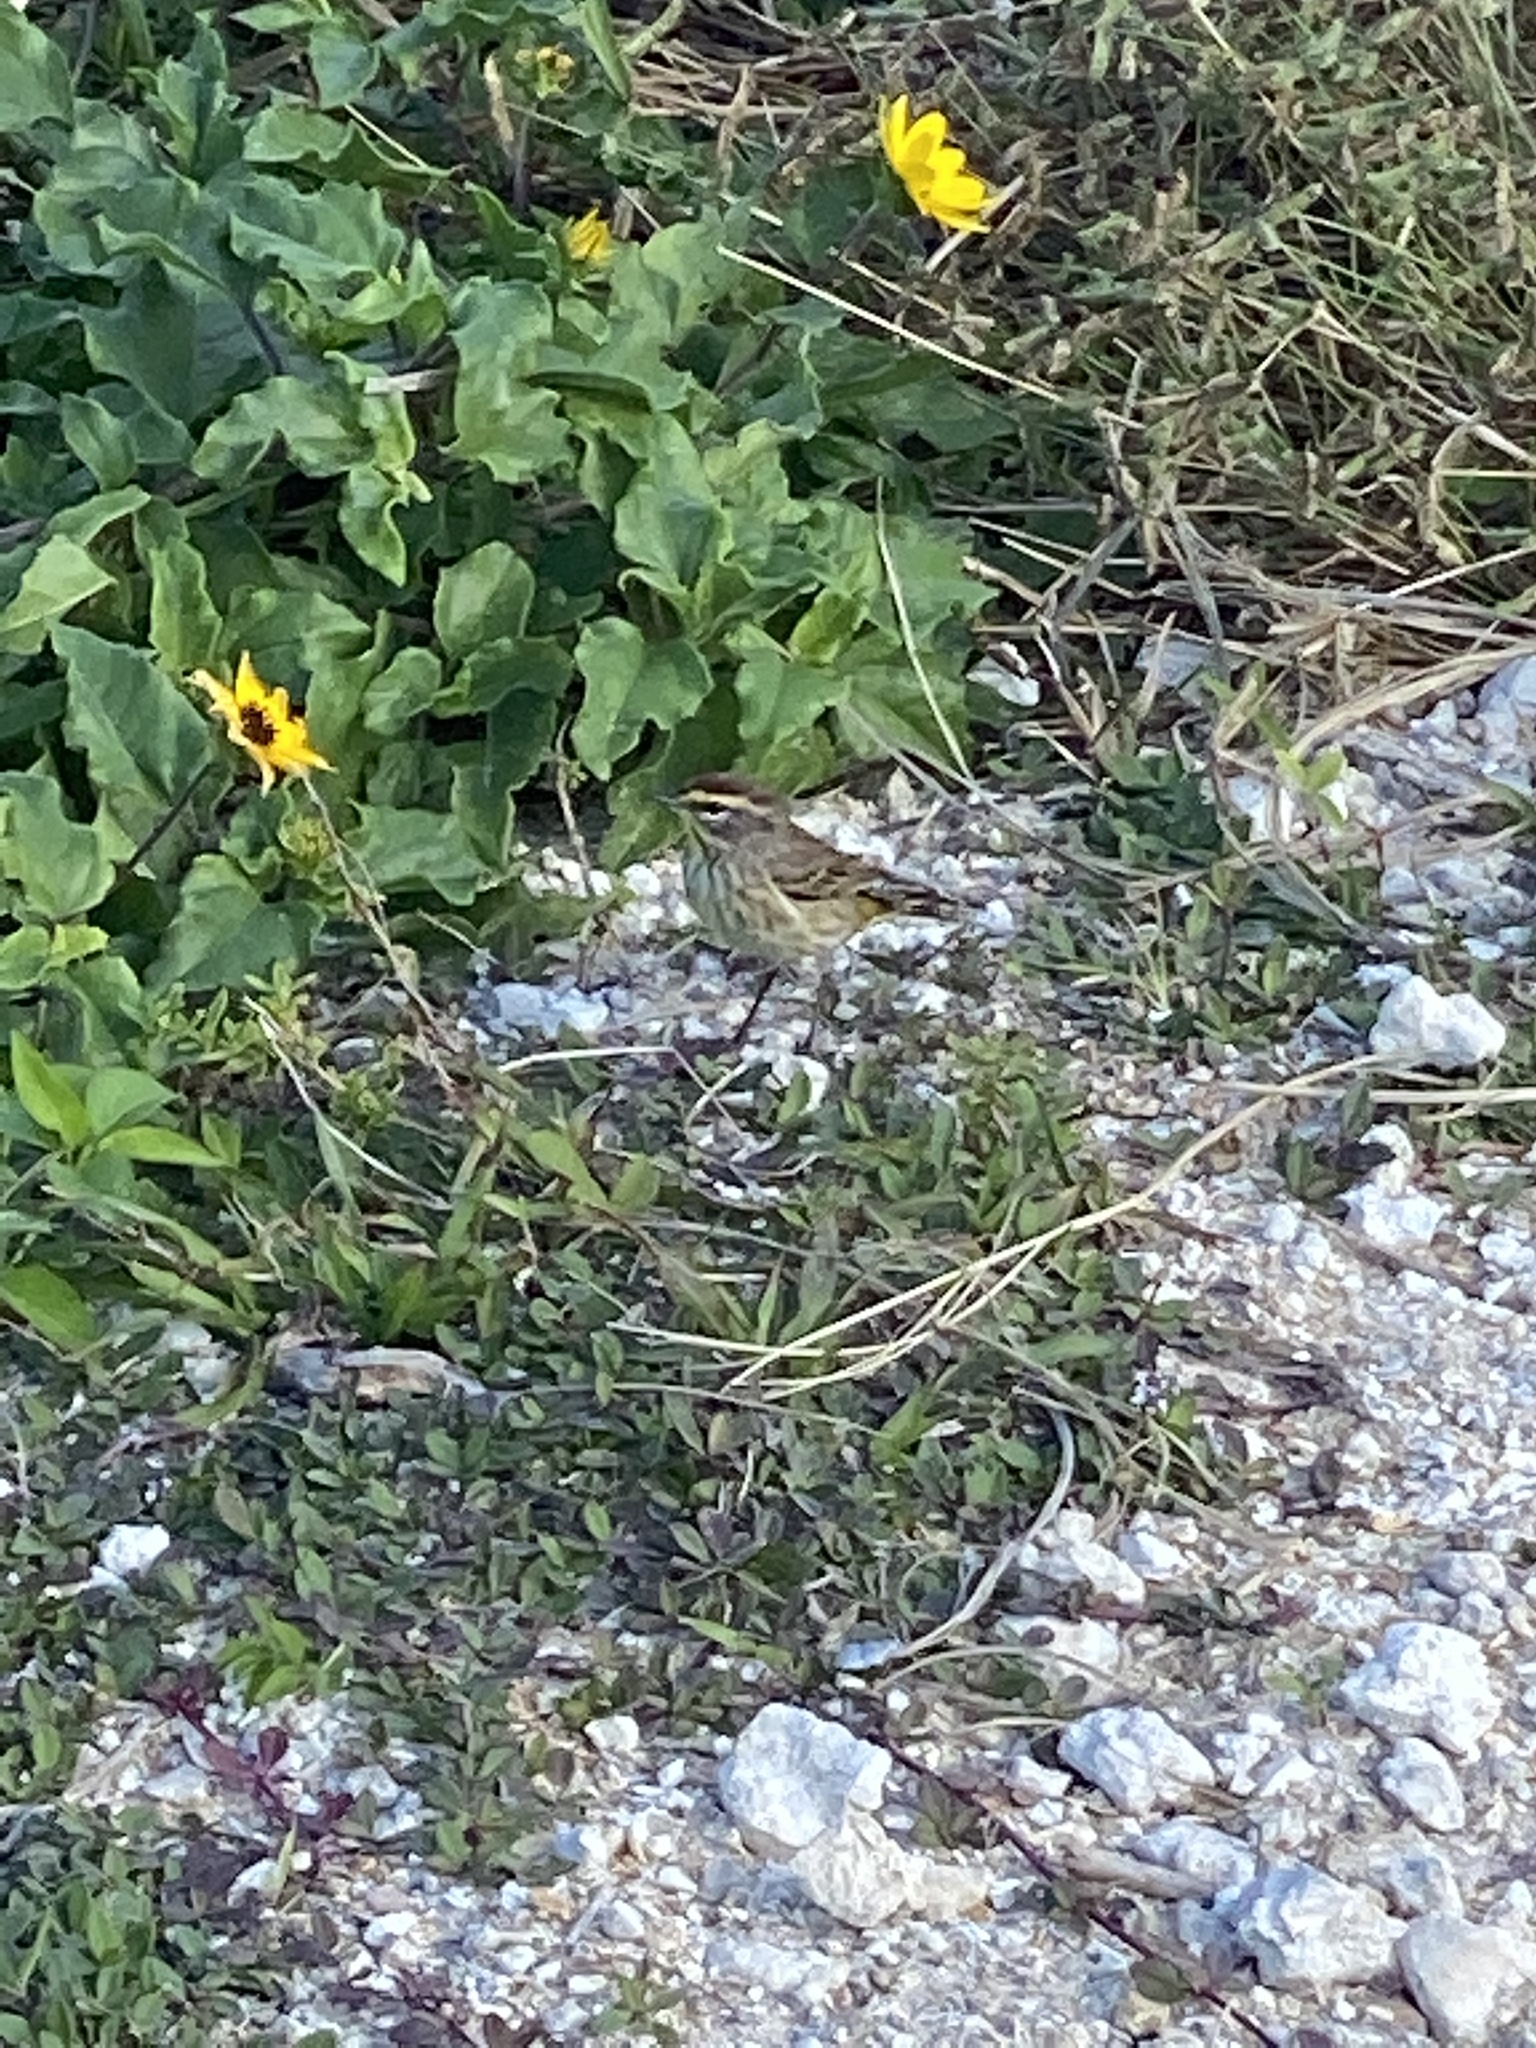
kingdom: Animalia
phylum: Chordata
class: Aves
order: Passeriformes
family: Parulidae
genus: Setophaga
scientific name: Setophaga palmarum
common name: Palm warbler
